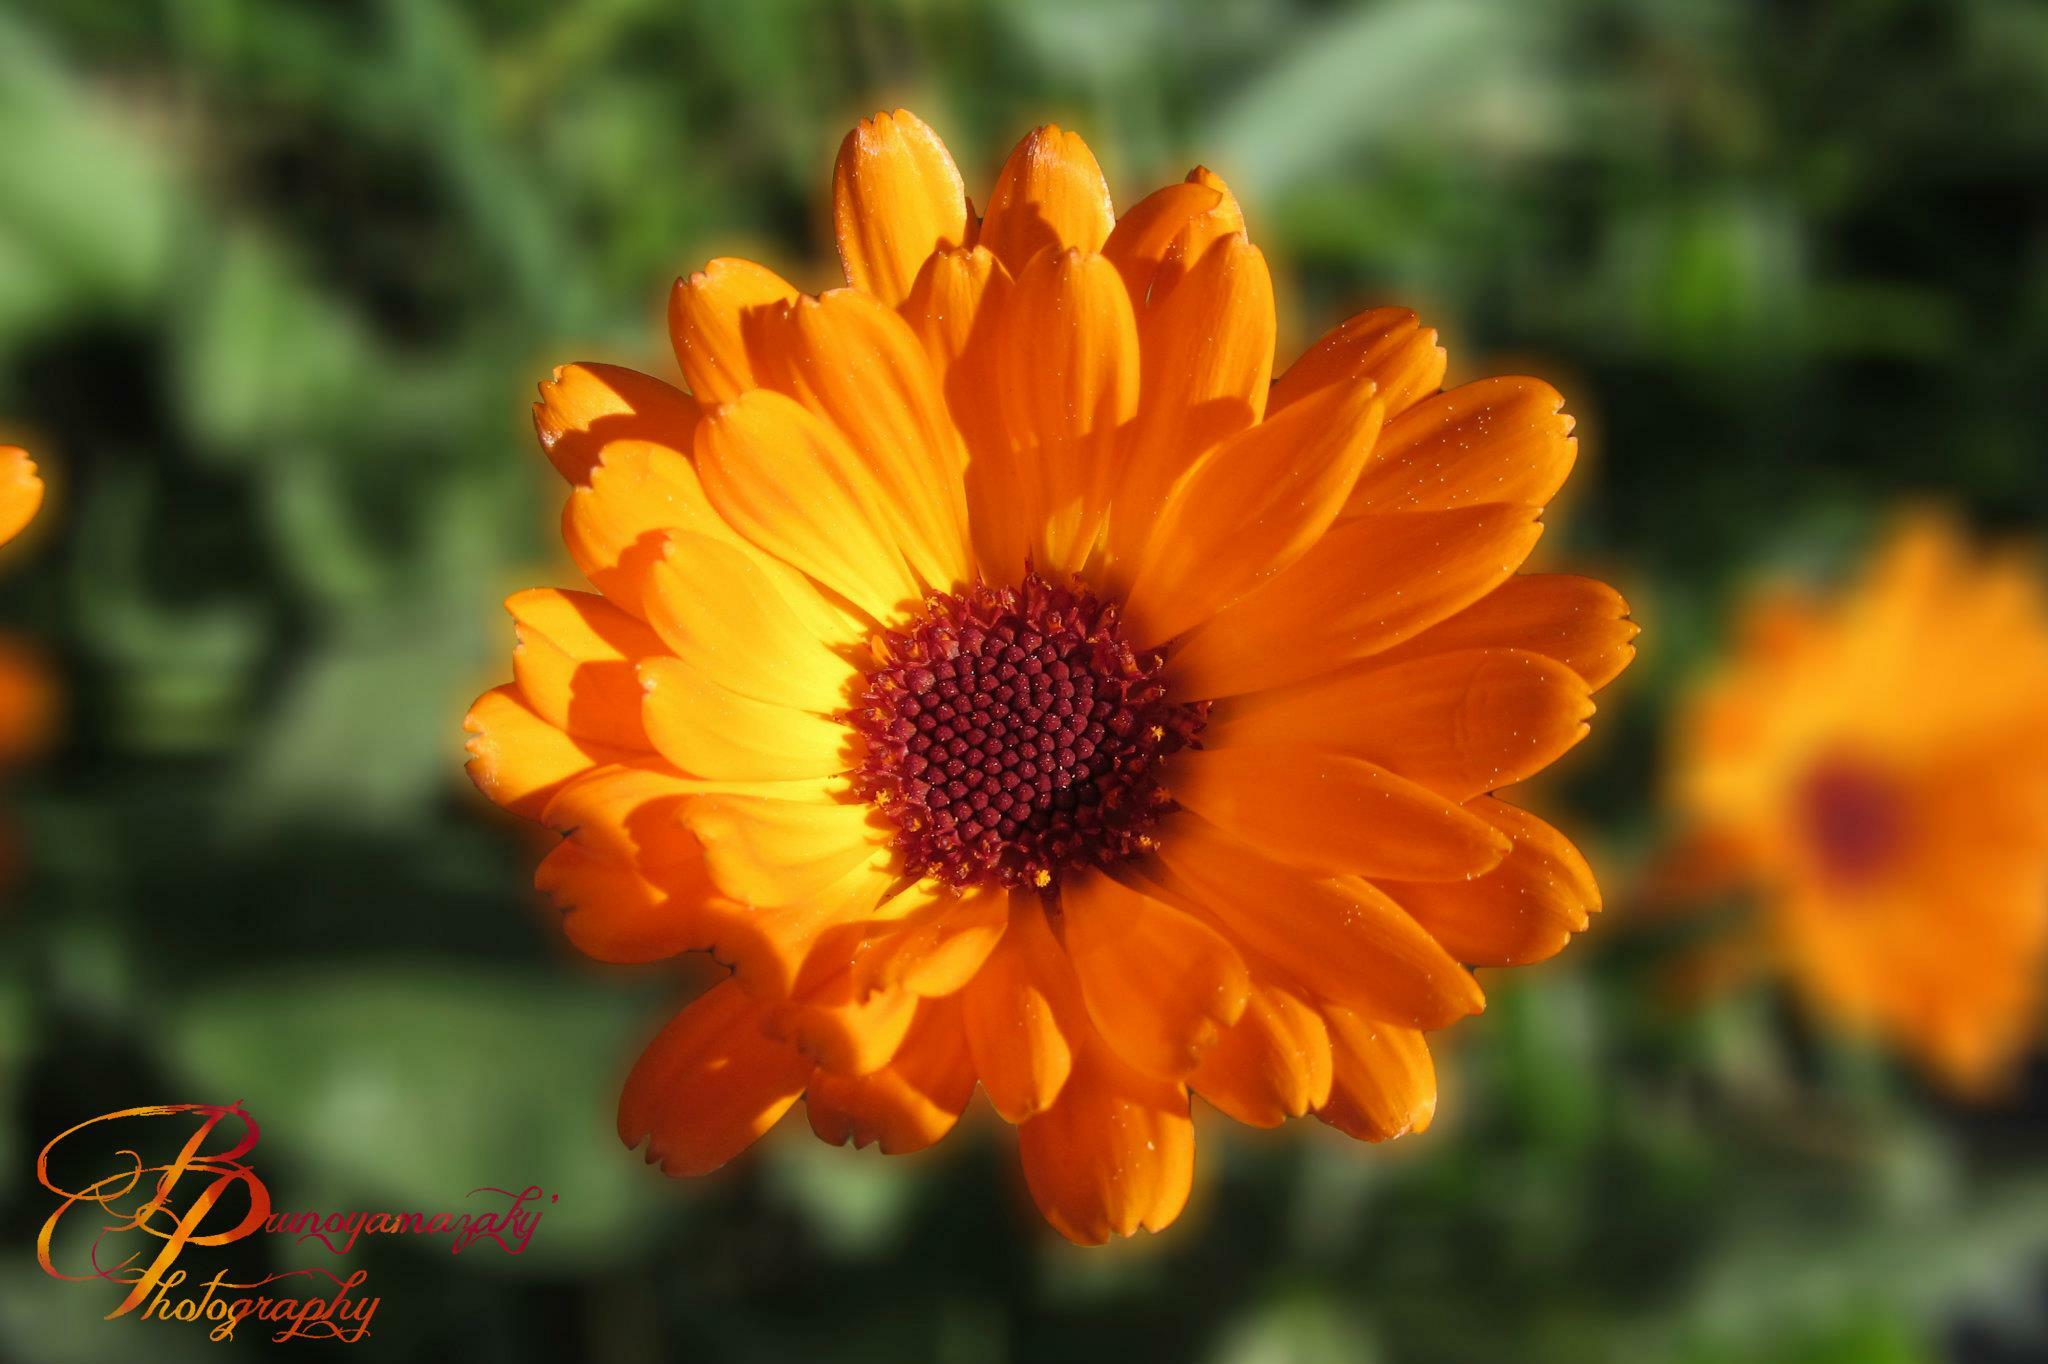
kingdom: Plantae
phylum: Tracheophyta
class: Magnoliopsida
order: Asterales
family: Asteraceae
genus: Calendula
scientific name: Calendula officinalis
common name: Pot marigold
